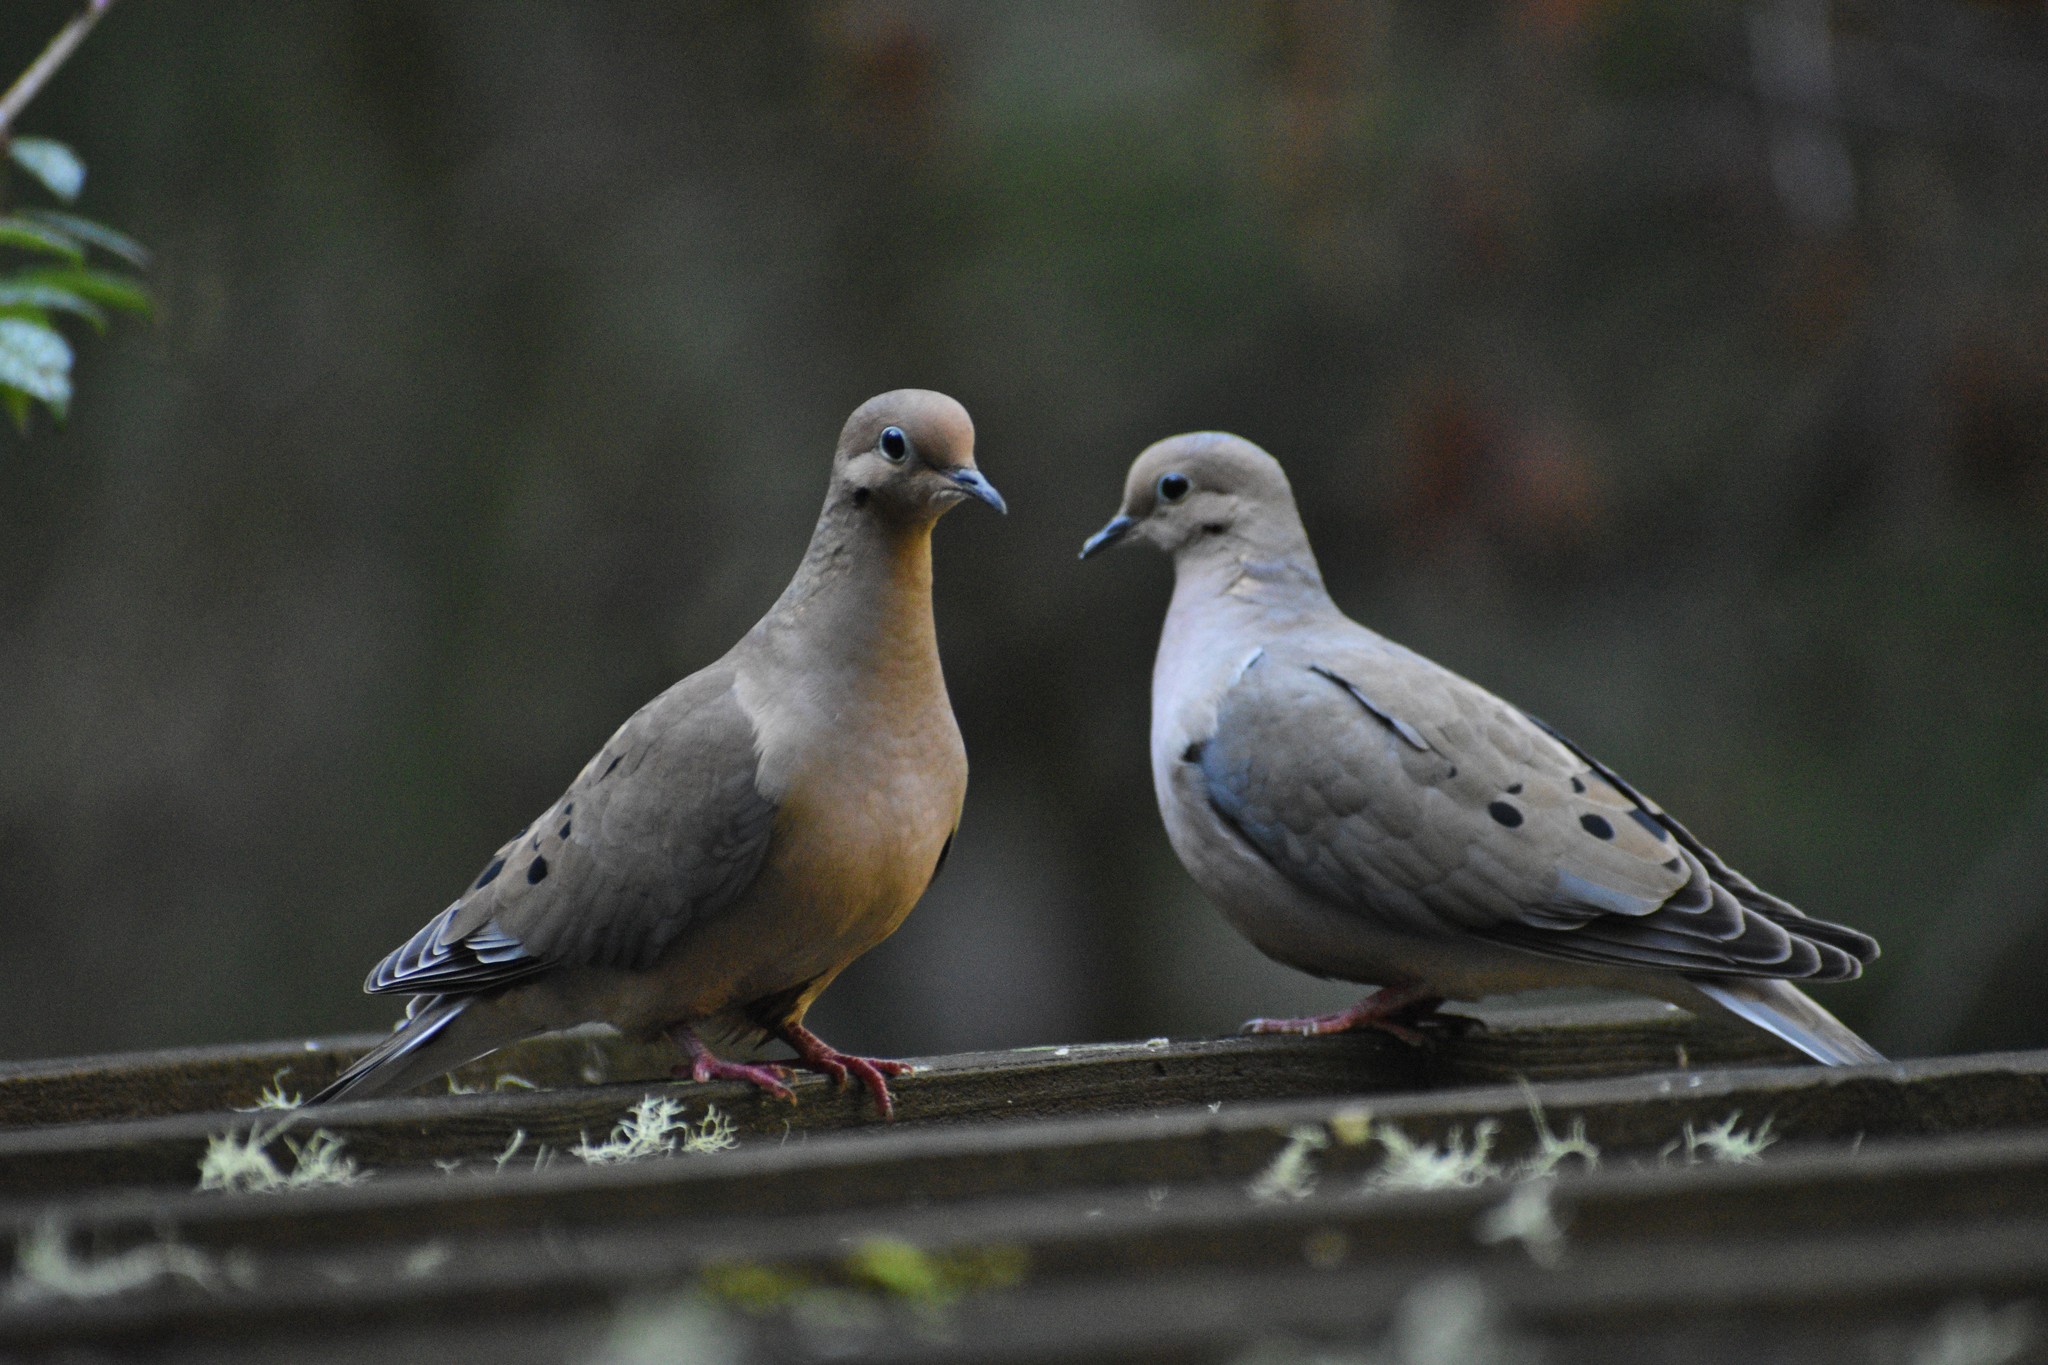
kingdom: Animalia
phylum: Chordata
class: Aves
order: Columbiformes
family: Columbidae
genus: Zenaida
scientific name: Zenaida macroura
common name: Mourning dove
